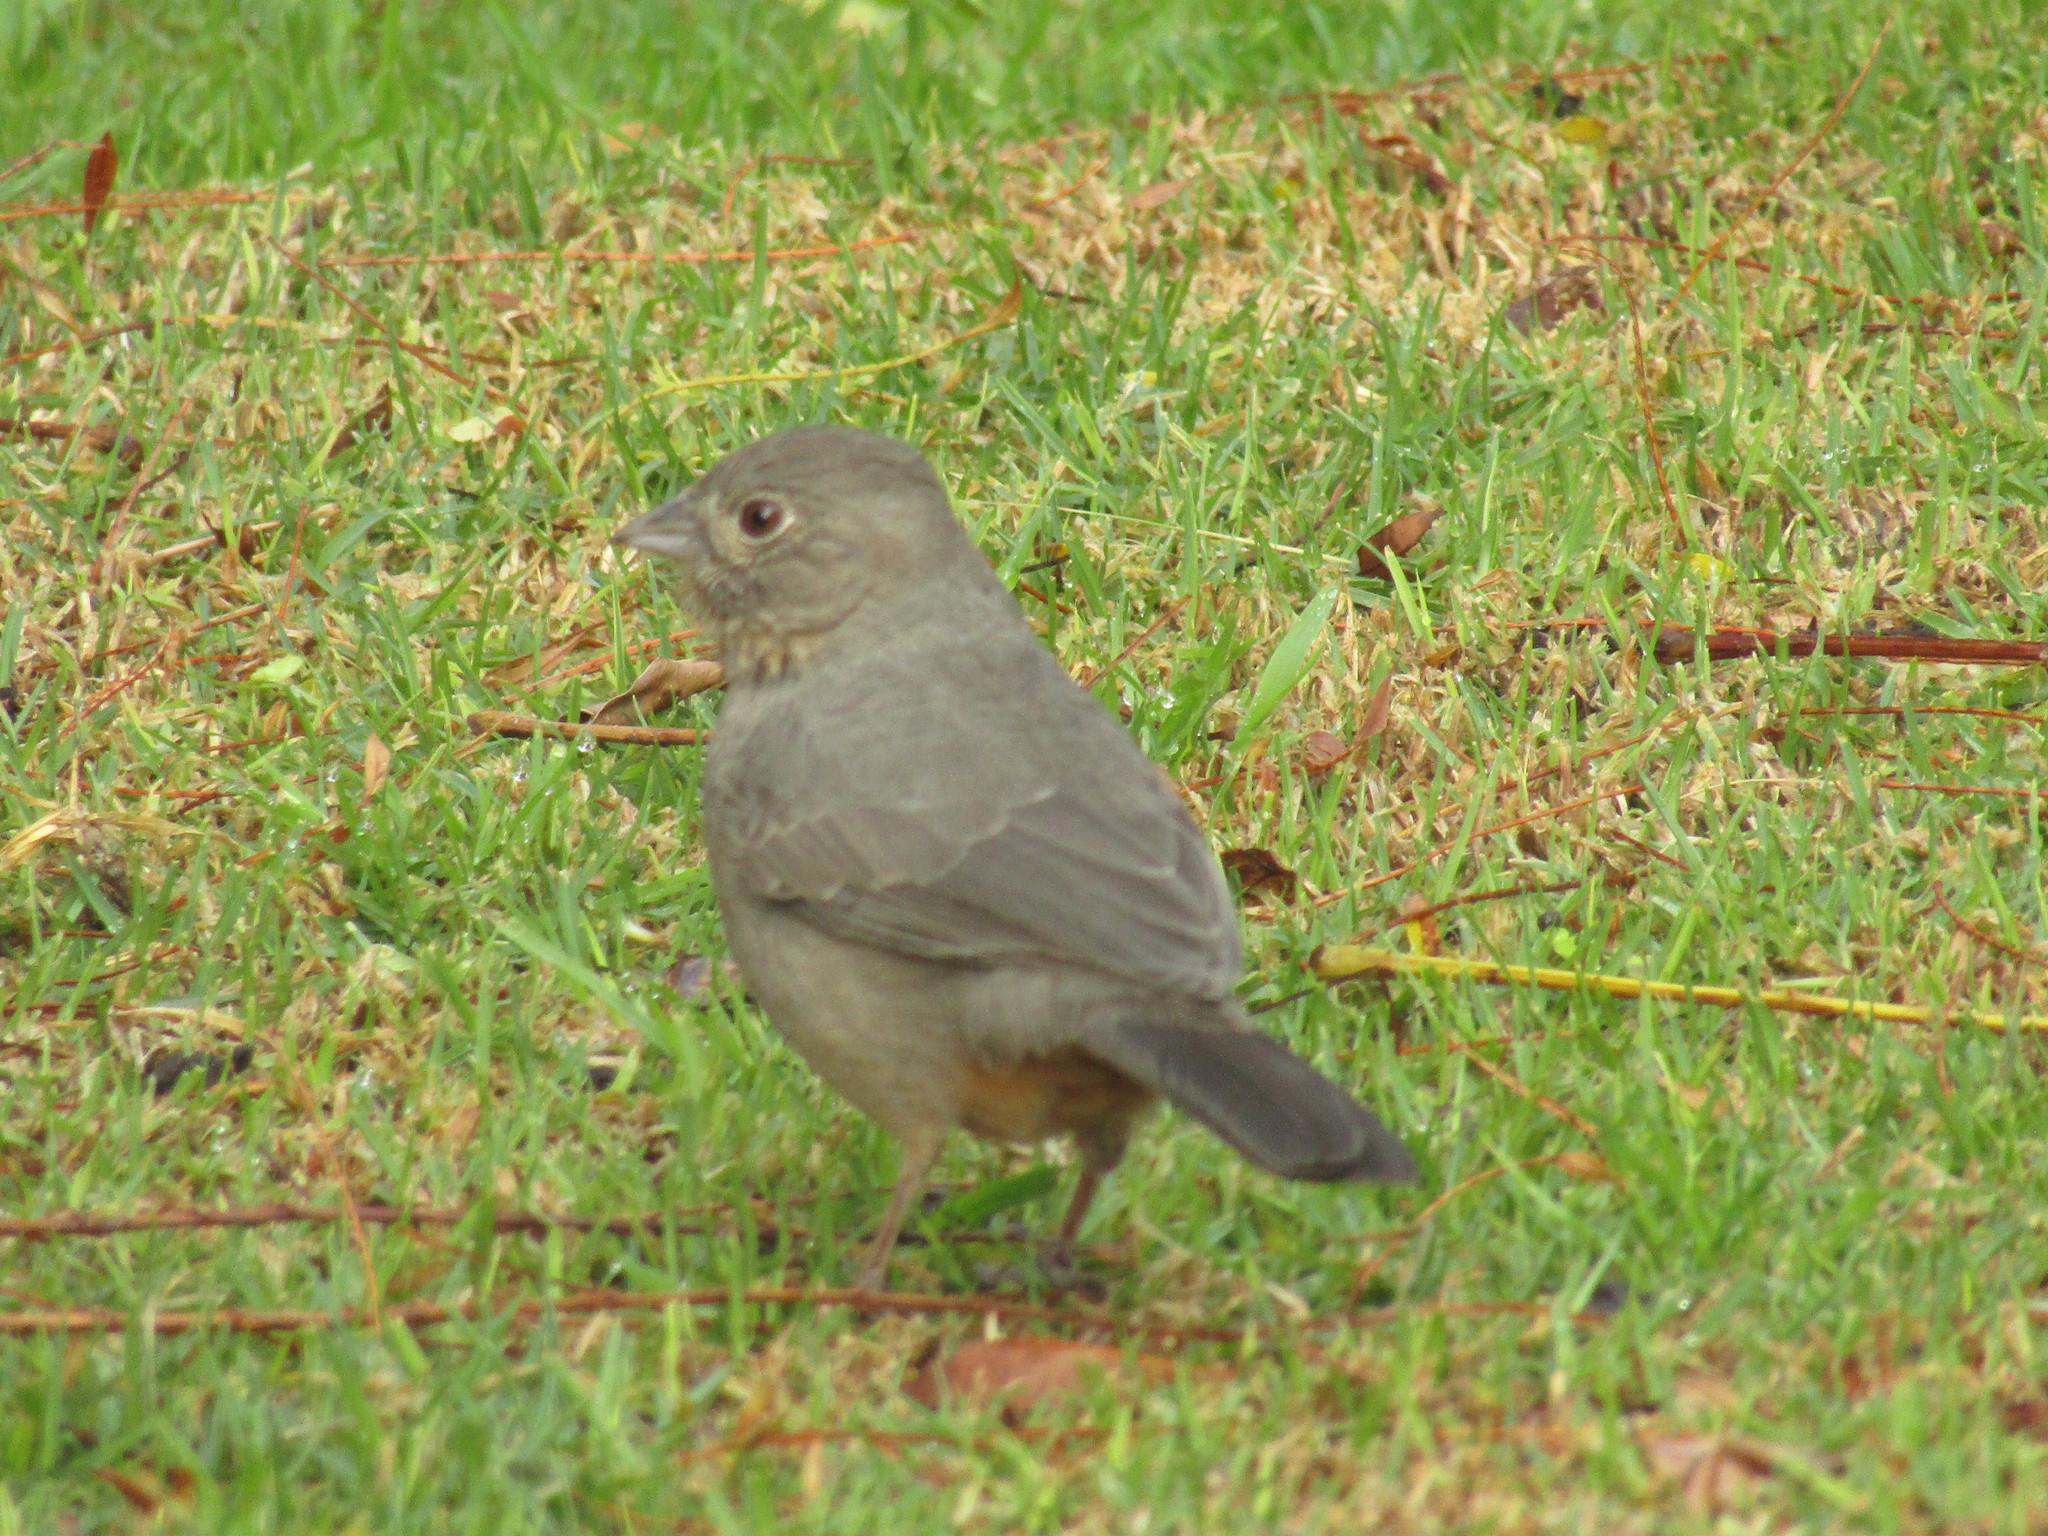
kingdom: Animalia
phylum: Chordata
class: Aves
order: Passeriformes
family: Passerellidae
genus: Melozone
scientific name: Melozone fusca
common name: Canyon towhee
